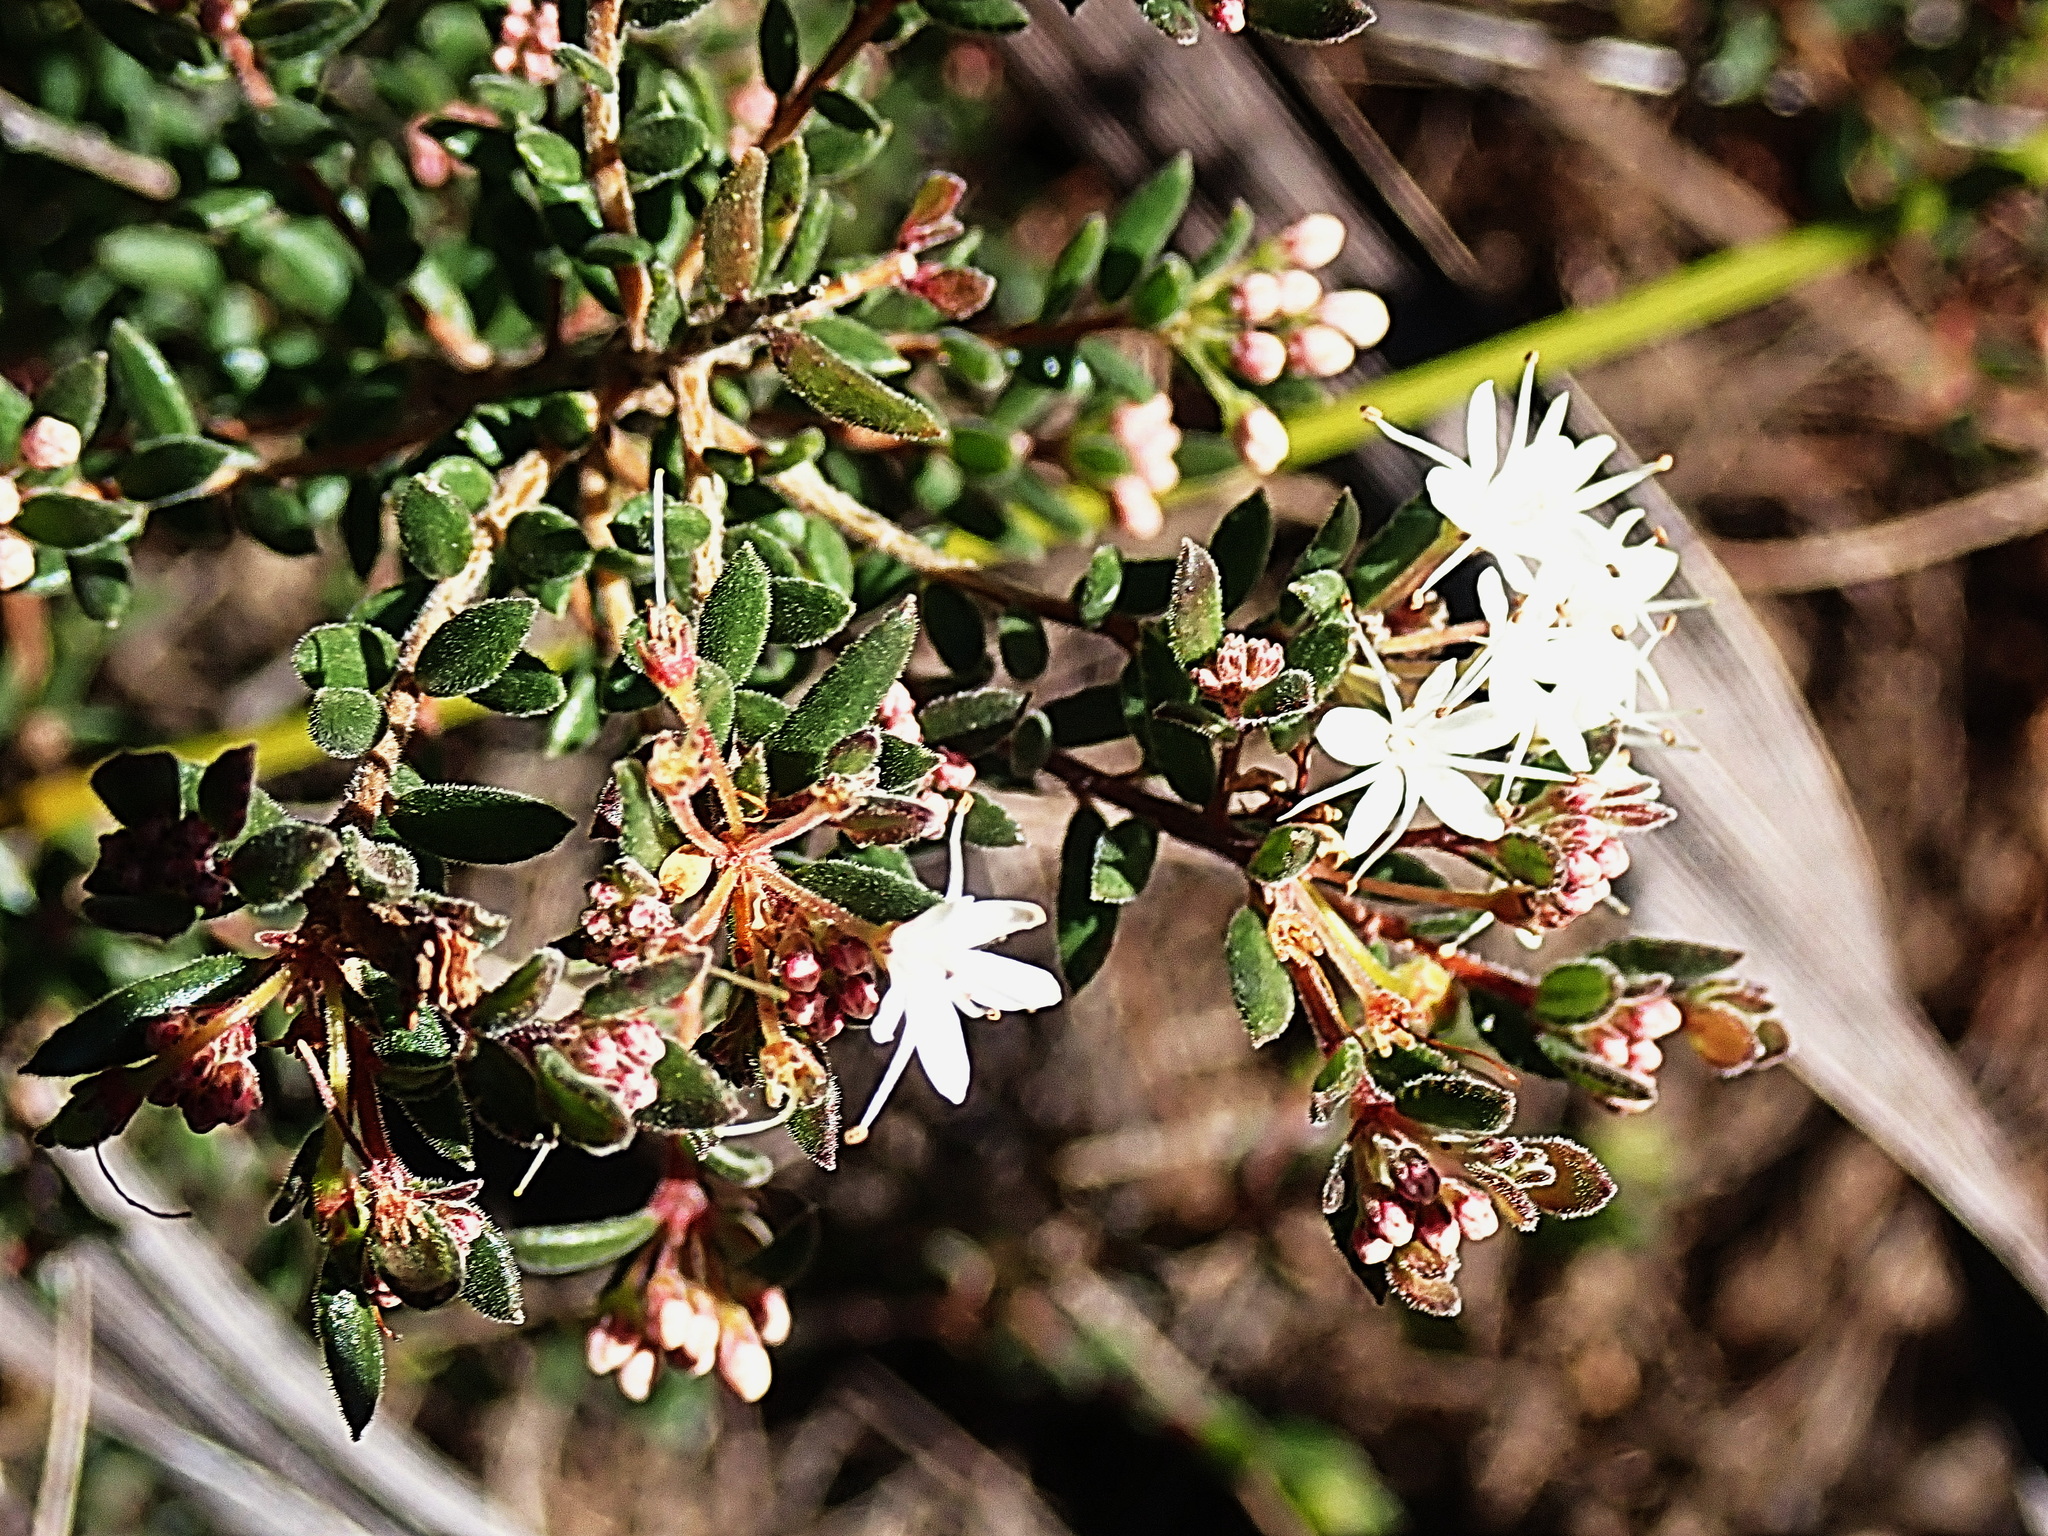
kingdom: Plantae
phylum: Tracheophyta
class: Magnoliopsida
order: Sapindales
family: Rutaceae
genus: Agathosma
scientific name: Agathosma mundtii
